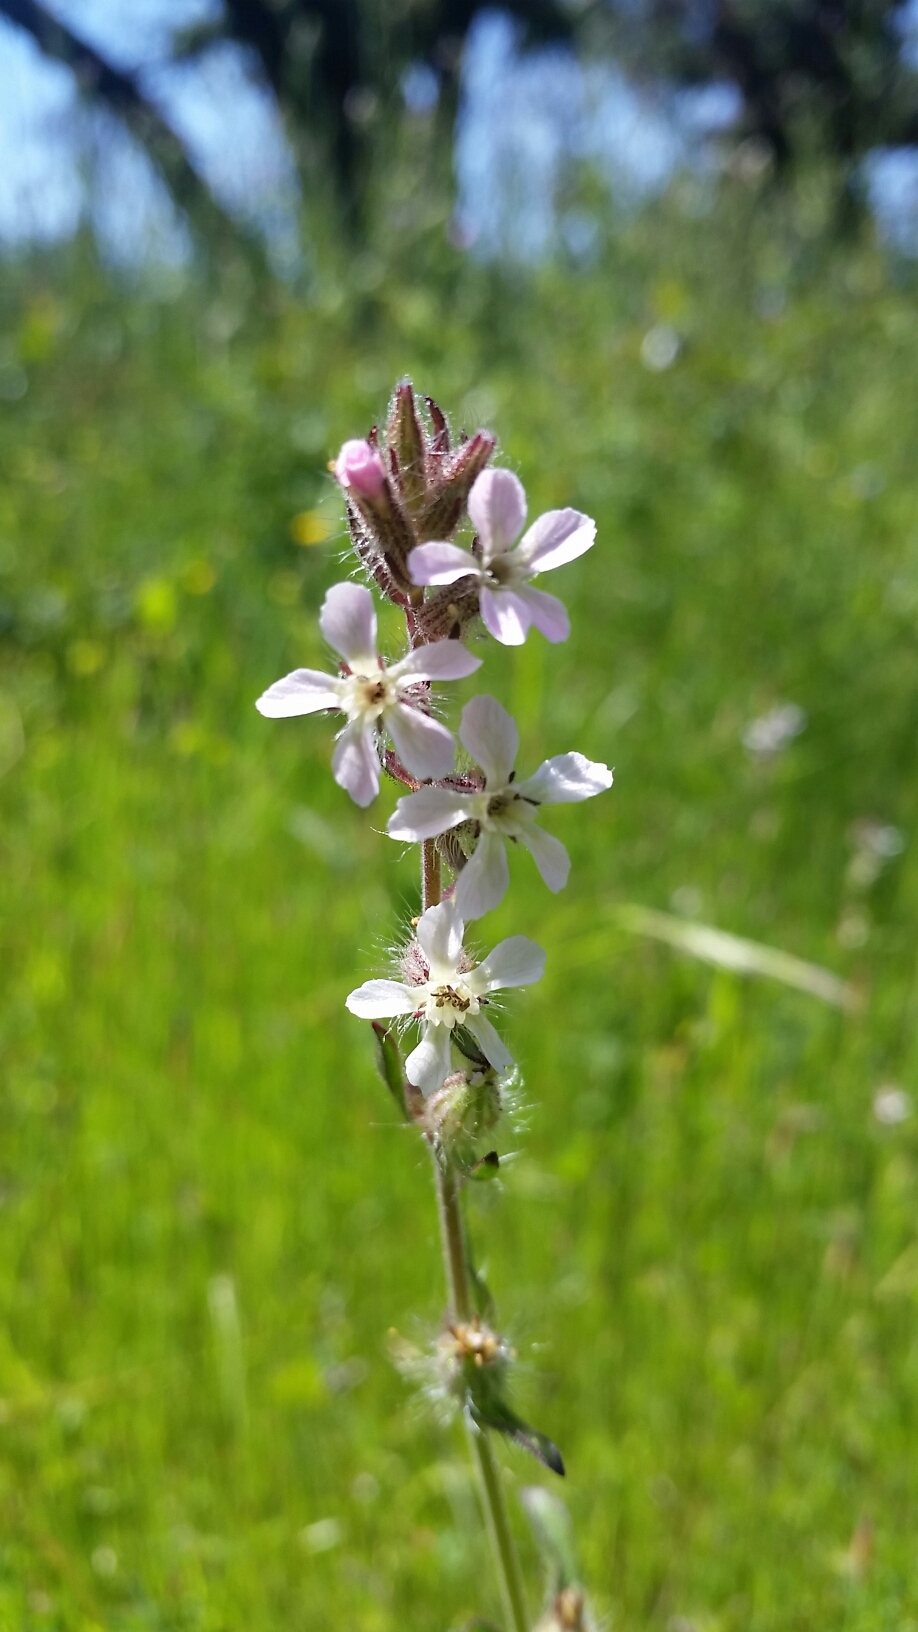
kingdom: Plantae
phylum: Tracheophyta
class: Magnoliopsida
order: Caryophyllales
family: Caryophyllaceae
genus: Silene
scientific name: Silene gallica
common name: Small-flowered catchfly
